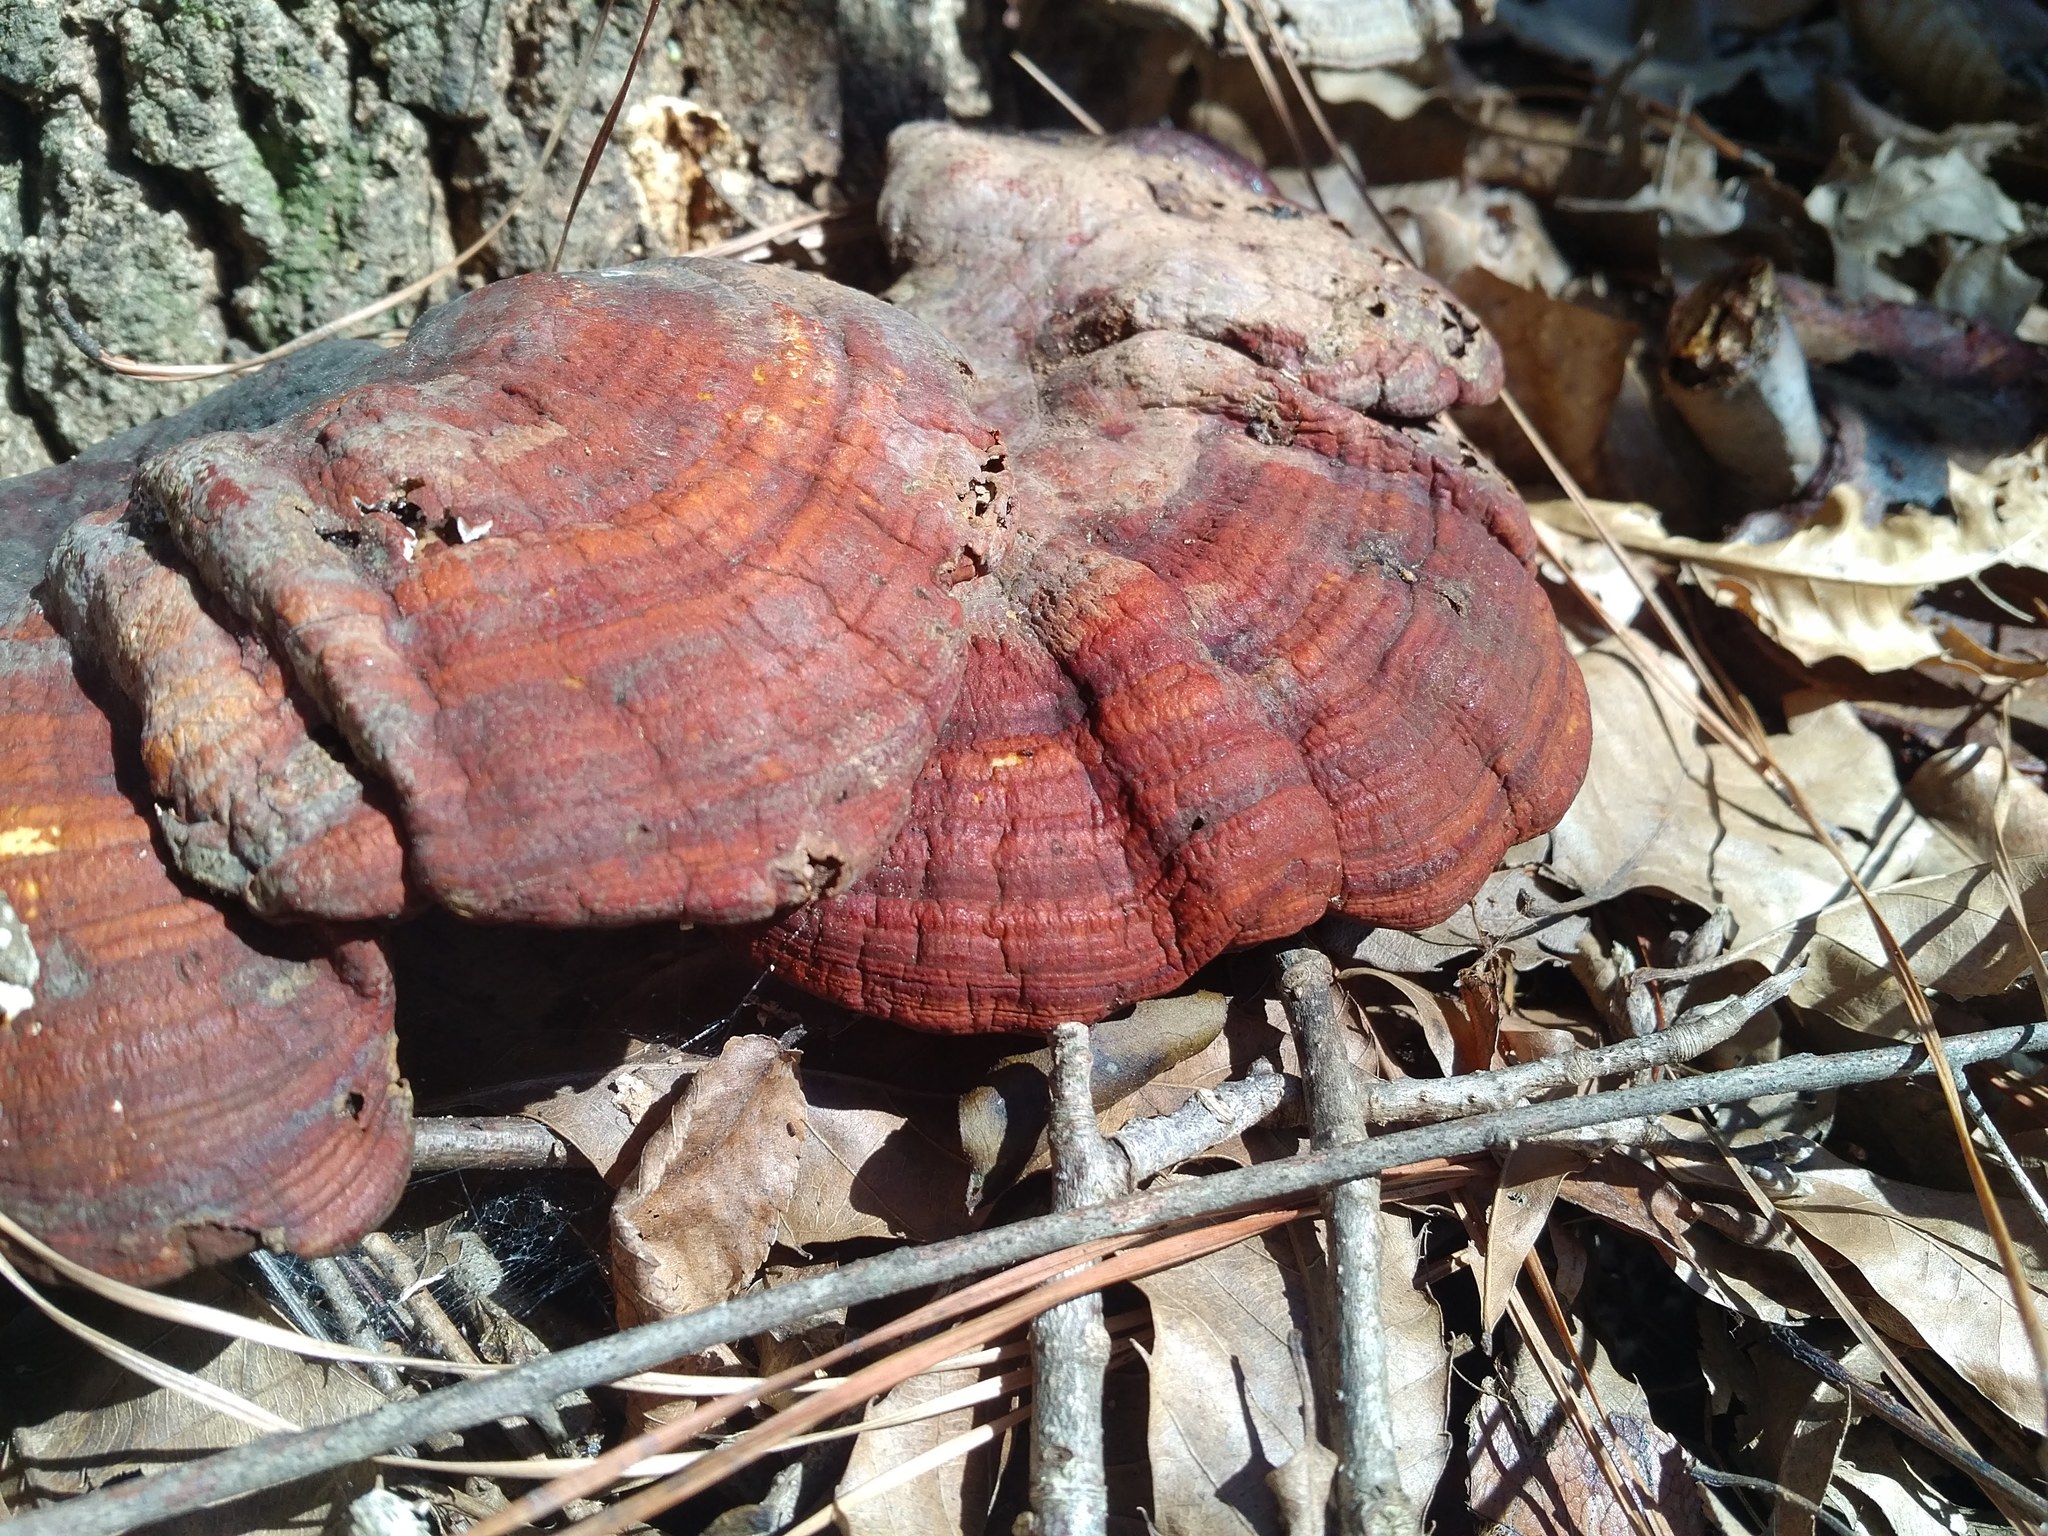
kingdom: Fungi
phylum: Basidiomycota
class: Agaricomycetes
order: Polyporales
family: Polyporaceae
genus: Ganoderma
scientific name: Ganoderma resinaceum
